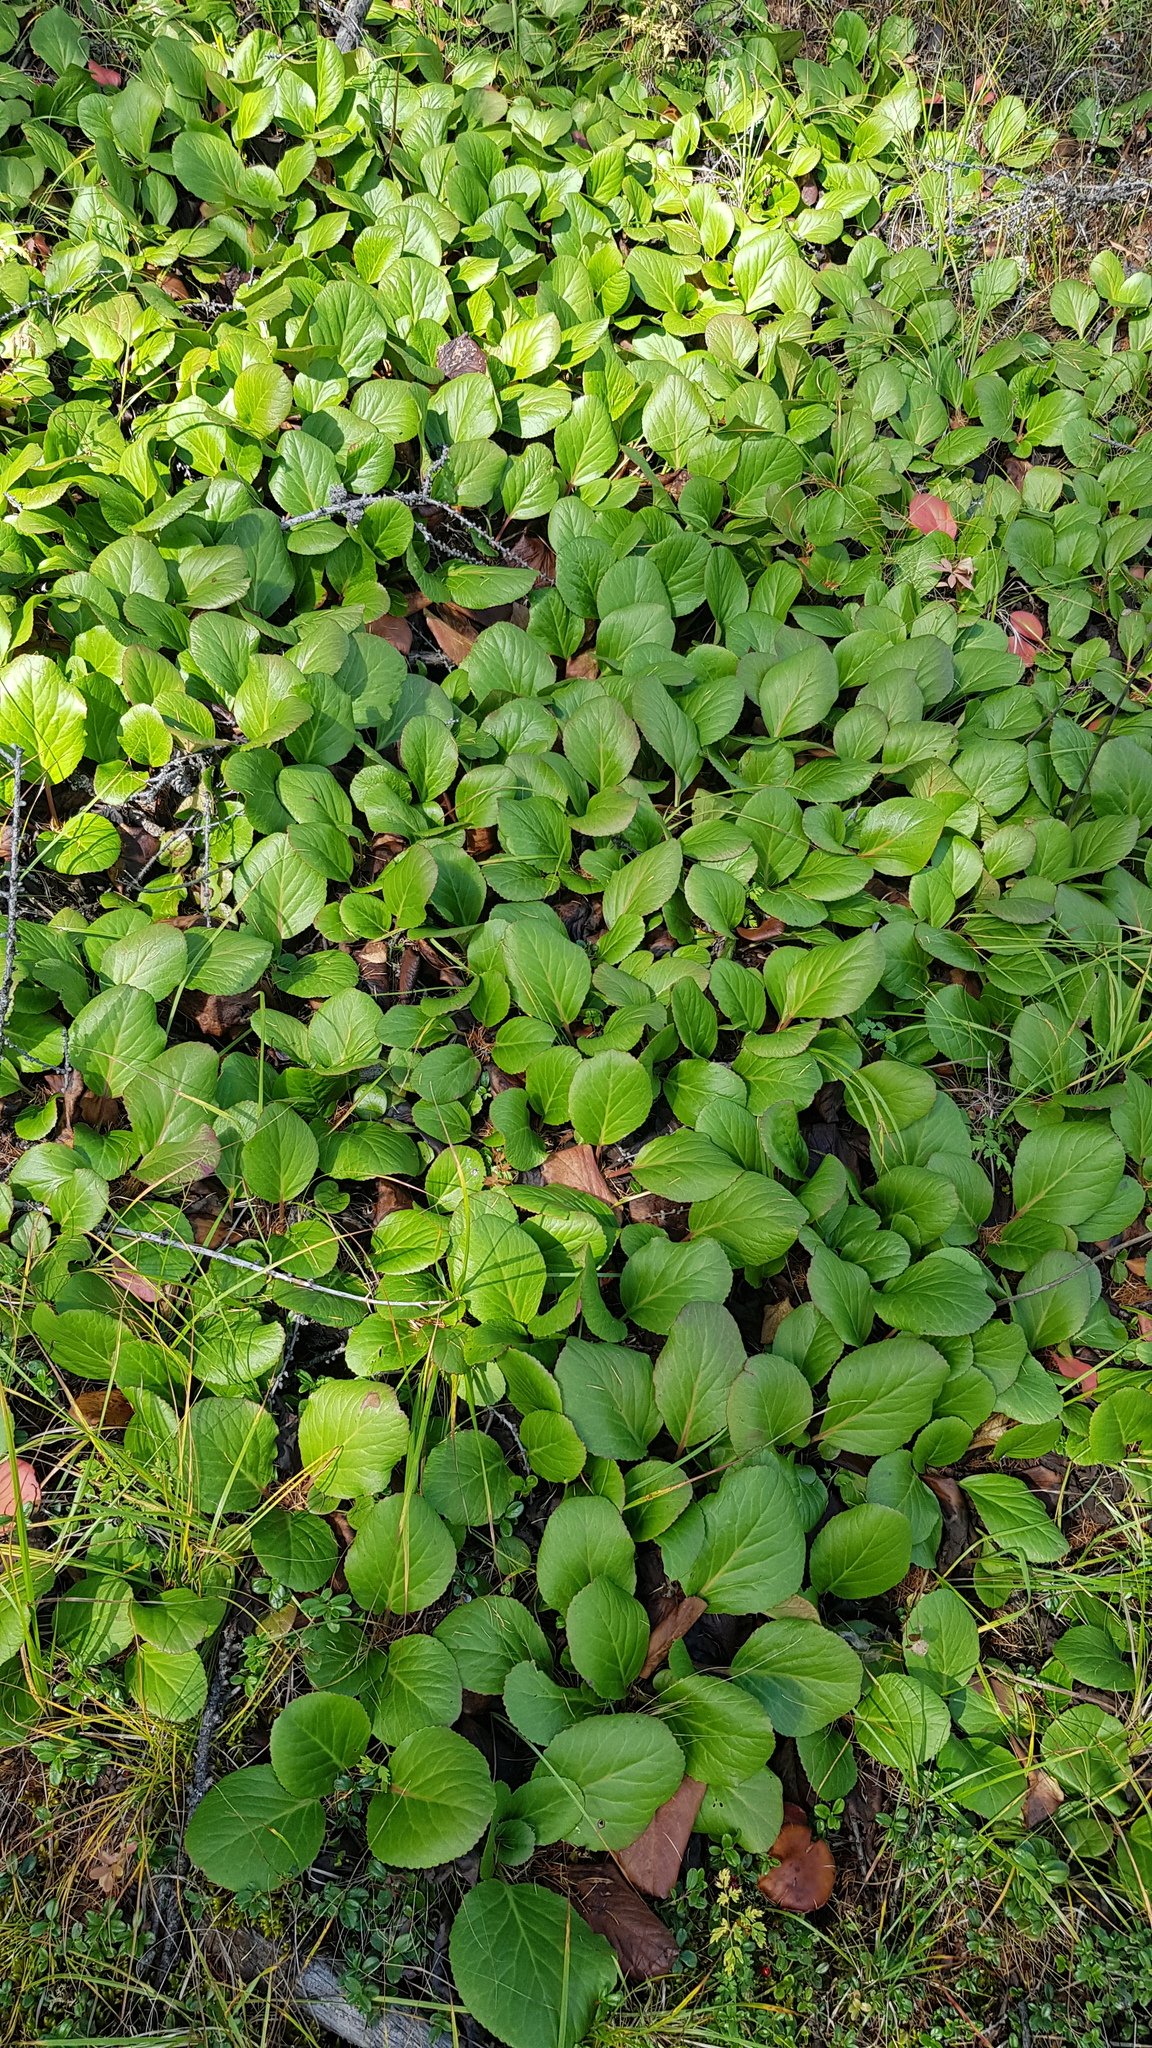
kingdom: Plantae
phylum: Tracheophyta
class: Magnoliopsida
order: Saxifragales
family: Saxifragaceae
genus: Bergenia
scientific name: Bergenia crassifolia
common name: Elephant-ears
